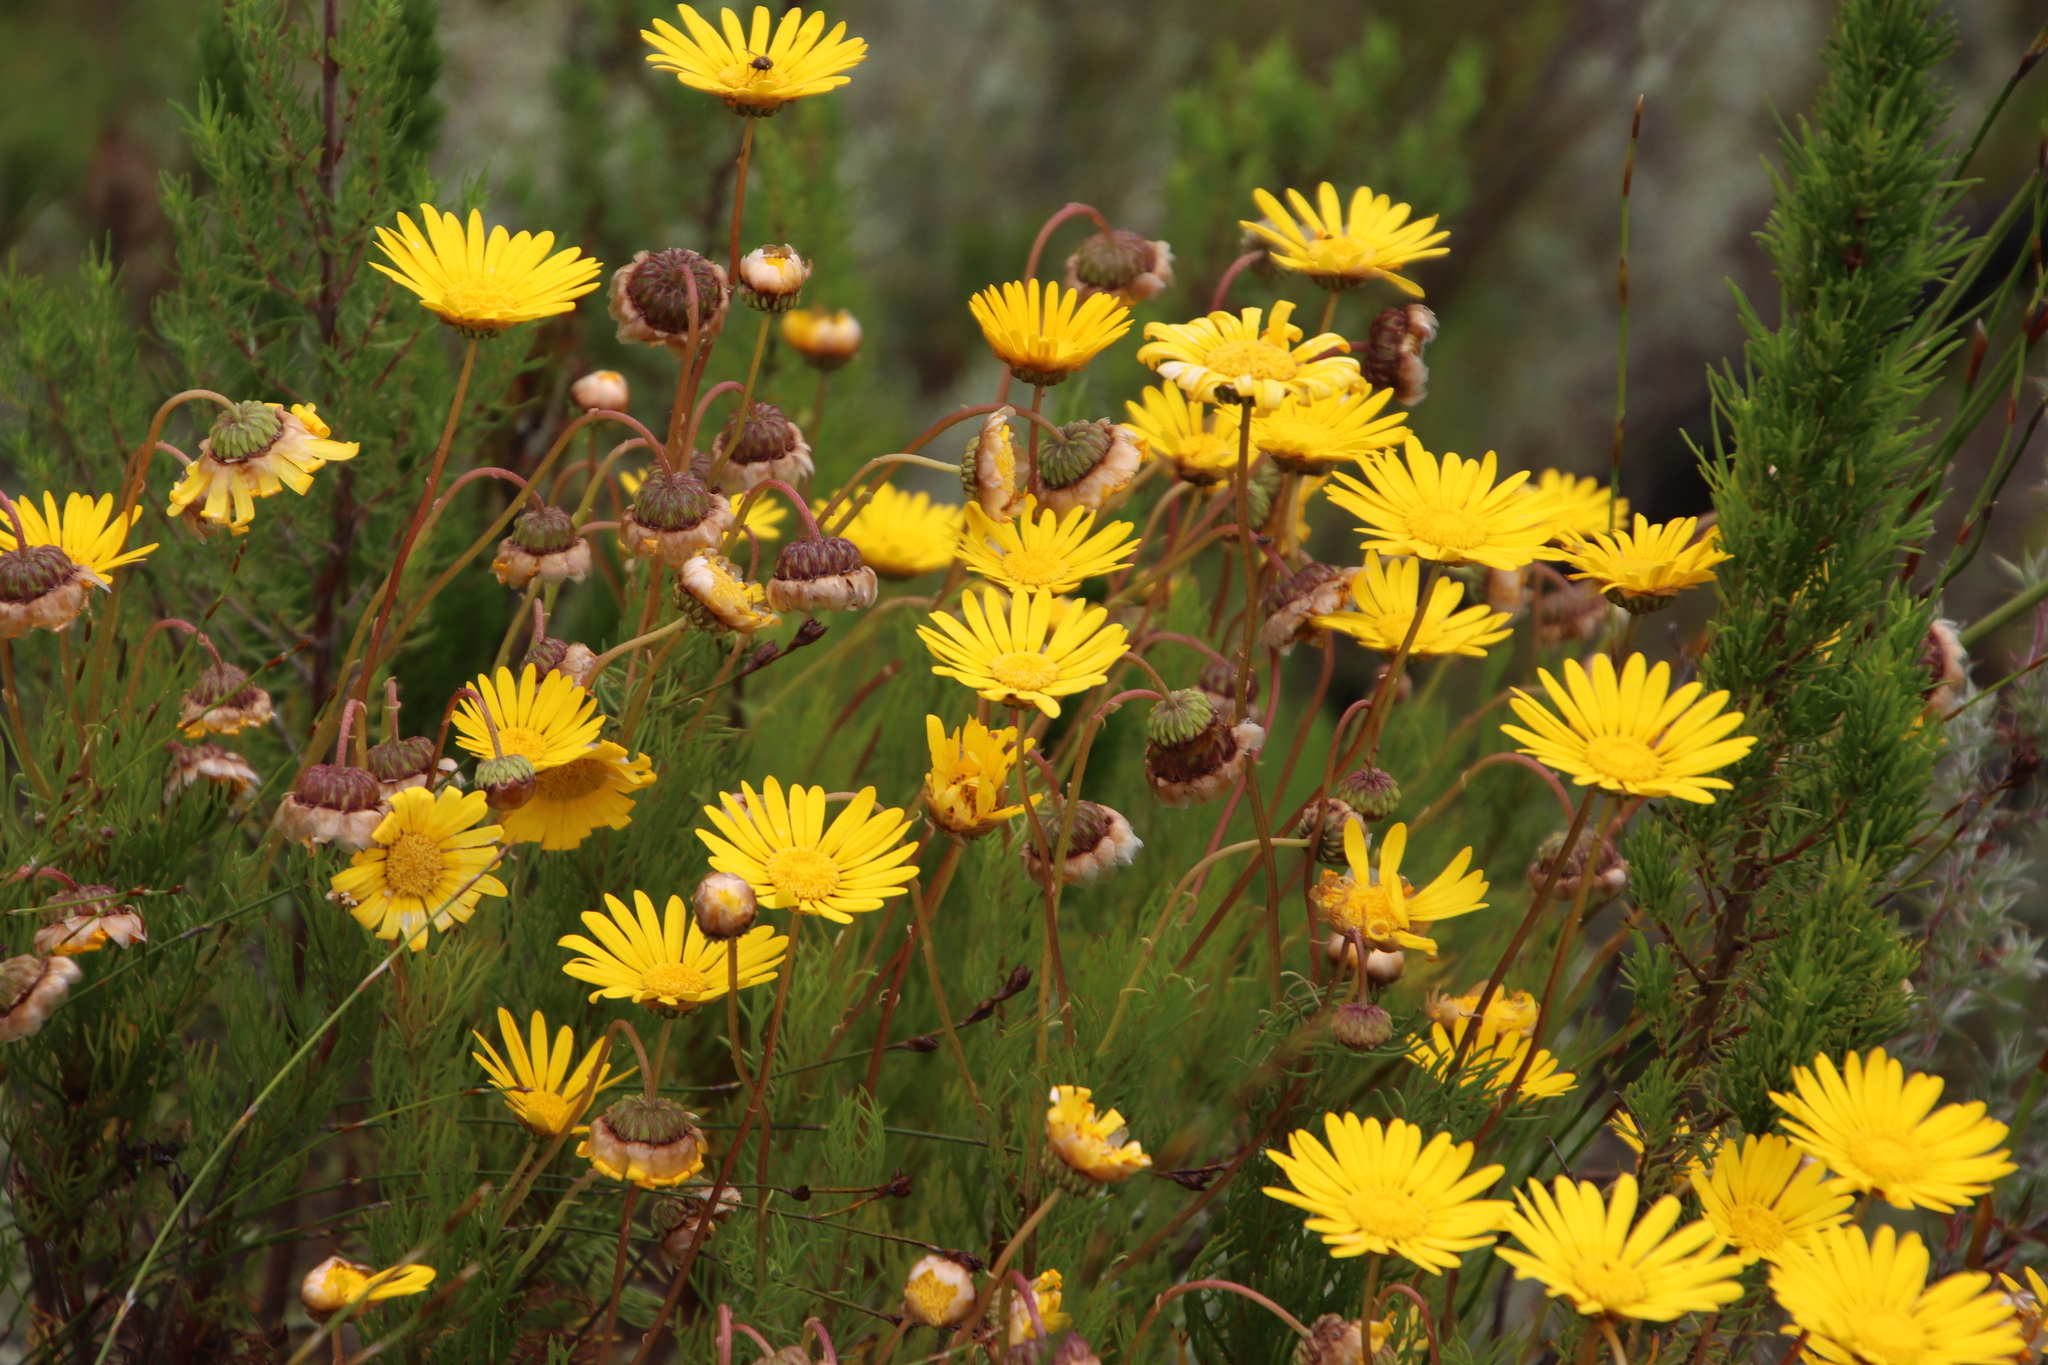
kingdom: Plantae
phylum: Tracheophyta
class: Magnoliopsida
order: Asterales
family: Asteraceae
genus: Euryops
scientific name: Euryops abrotanifolius
